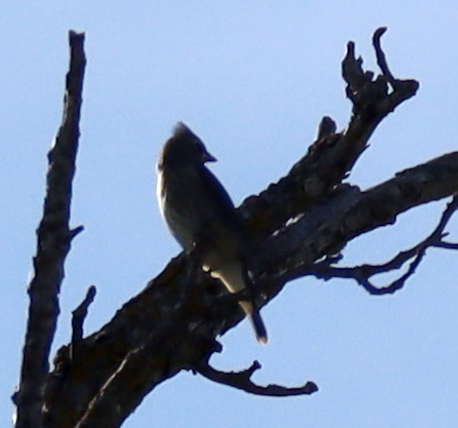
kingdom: Animalia
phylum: Chordata
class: Aves
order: Passeriformes
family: Bombycillidae
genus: Bombycilla
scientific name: Bombycilla cedrorum
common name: Cedar waxwing
